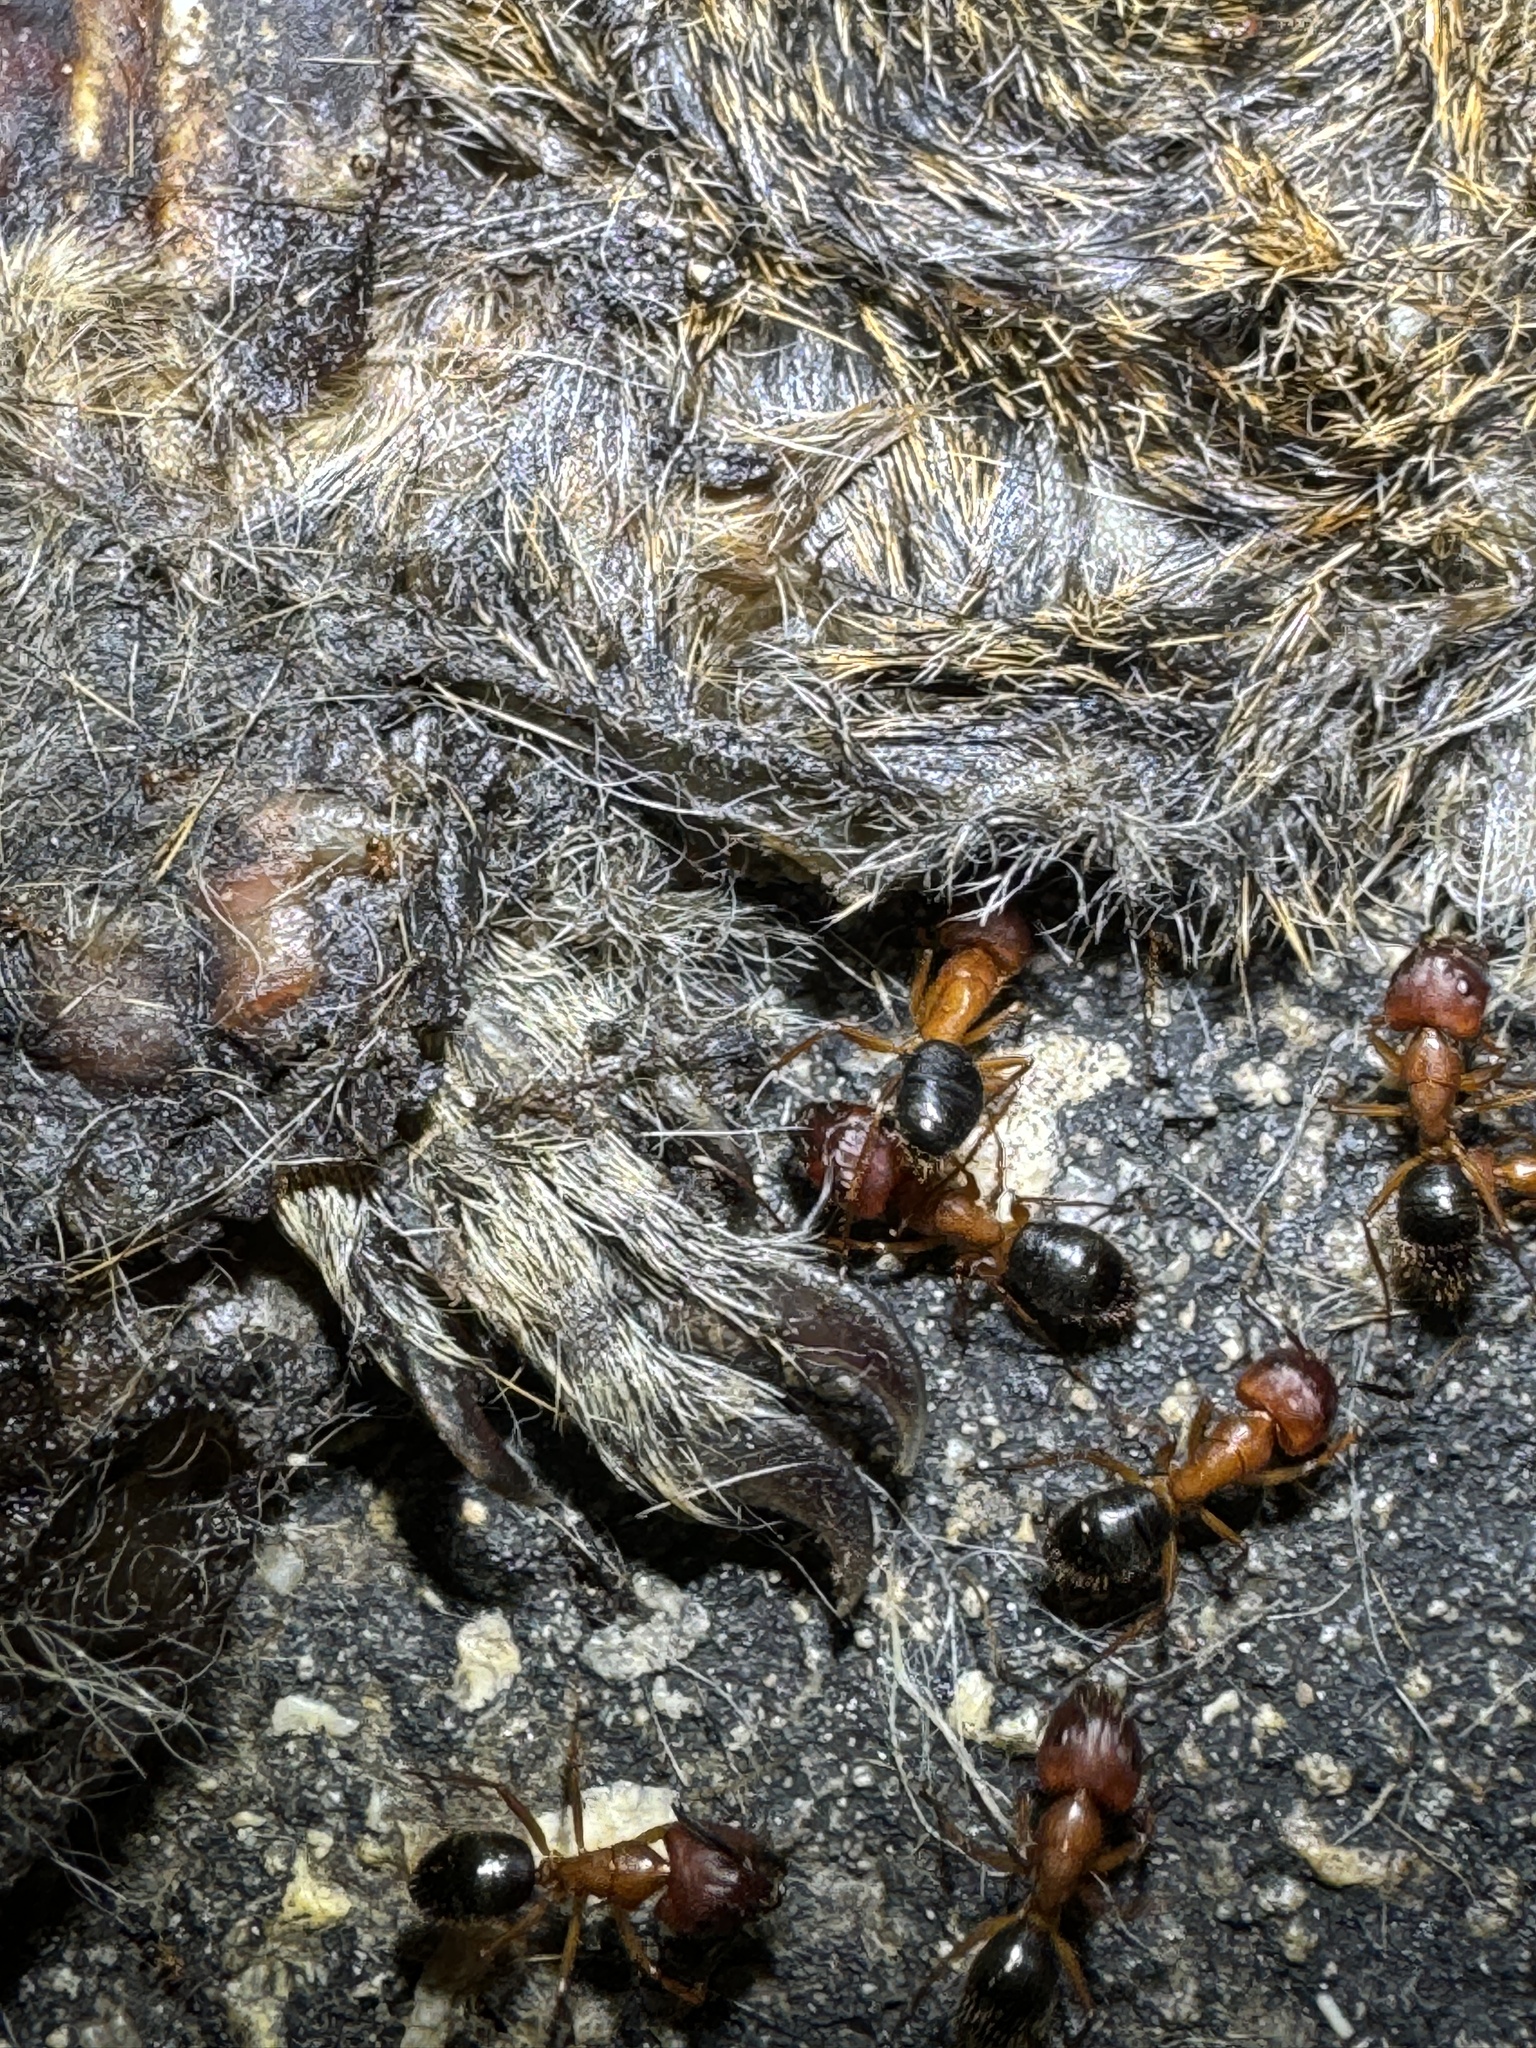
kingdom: Animalia
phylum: Arthropoda
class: Insecta
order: Hymenoptera
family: Formicidae
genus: Camponotus
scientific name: Camponotus floridanus
